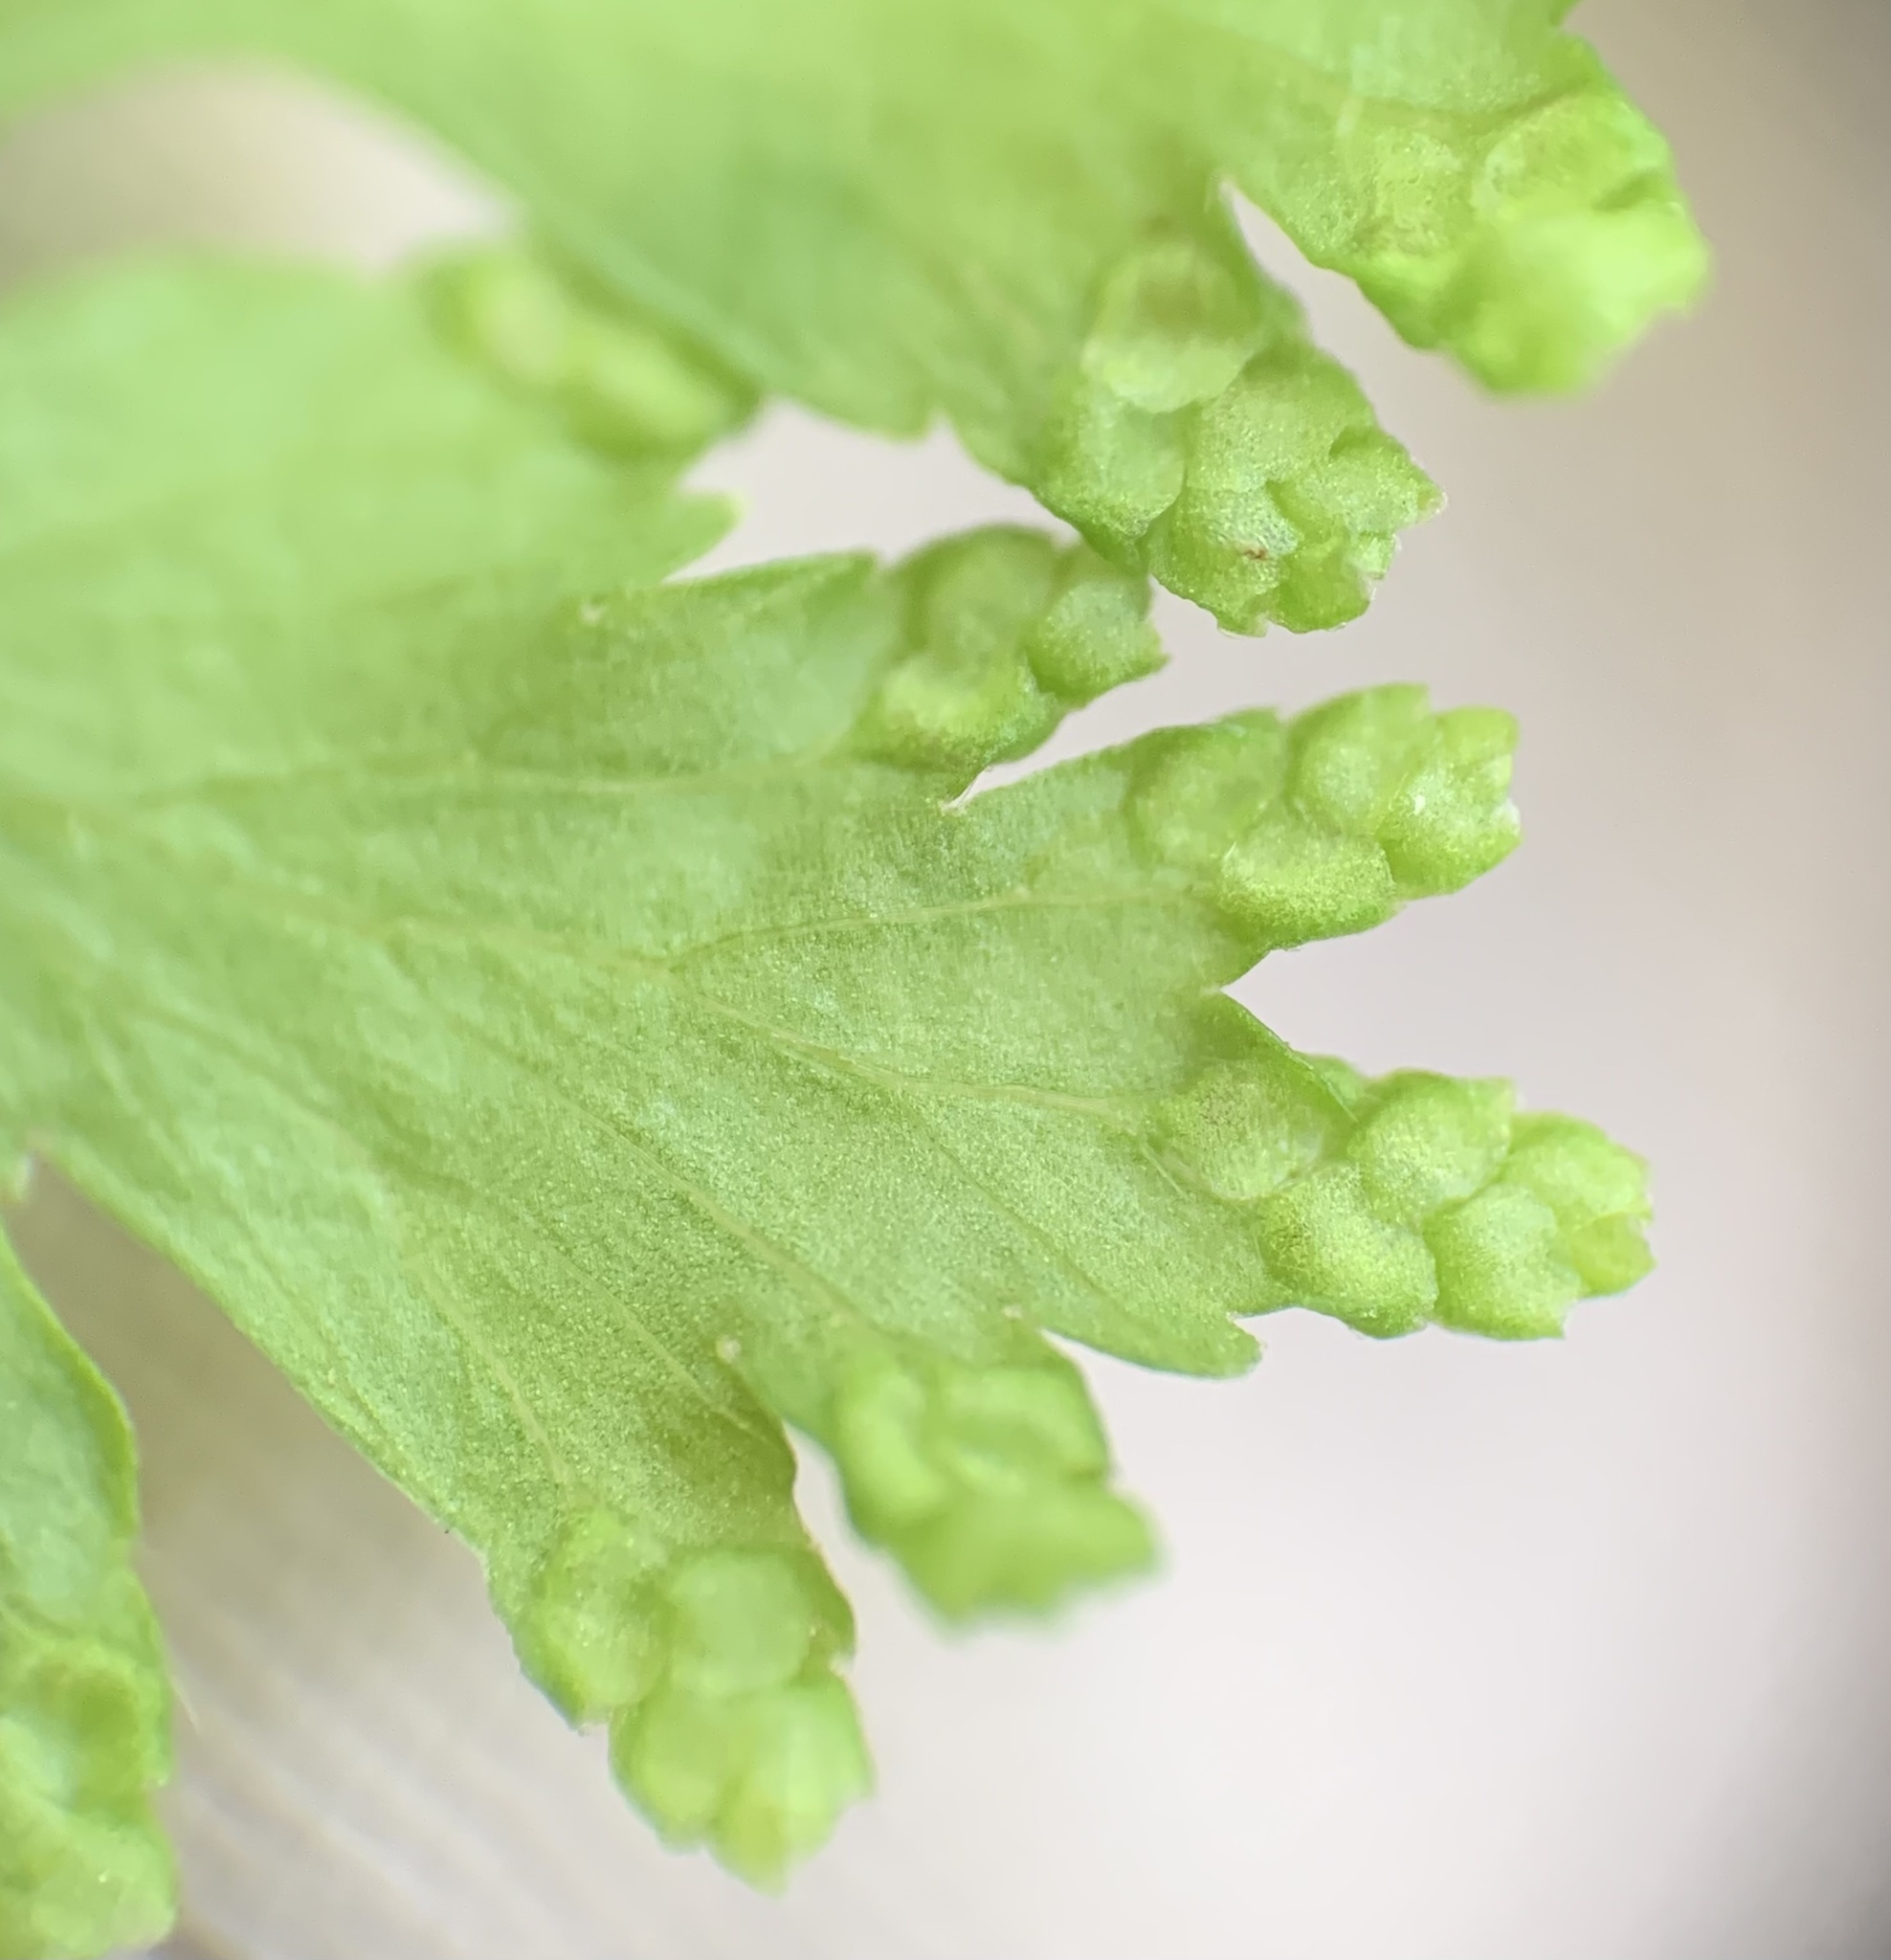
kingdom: Plantae
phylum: Tracheophyta
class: Polypodiopsida
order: Schizaeales
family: Lygodiaceae
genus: Lygodium
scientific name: Lygodium japonicum
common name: Japanese climbing fern
